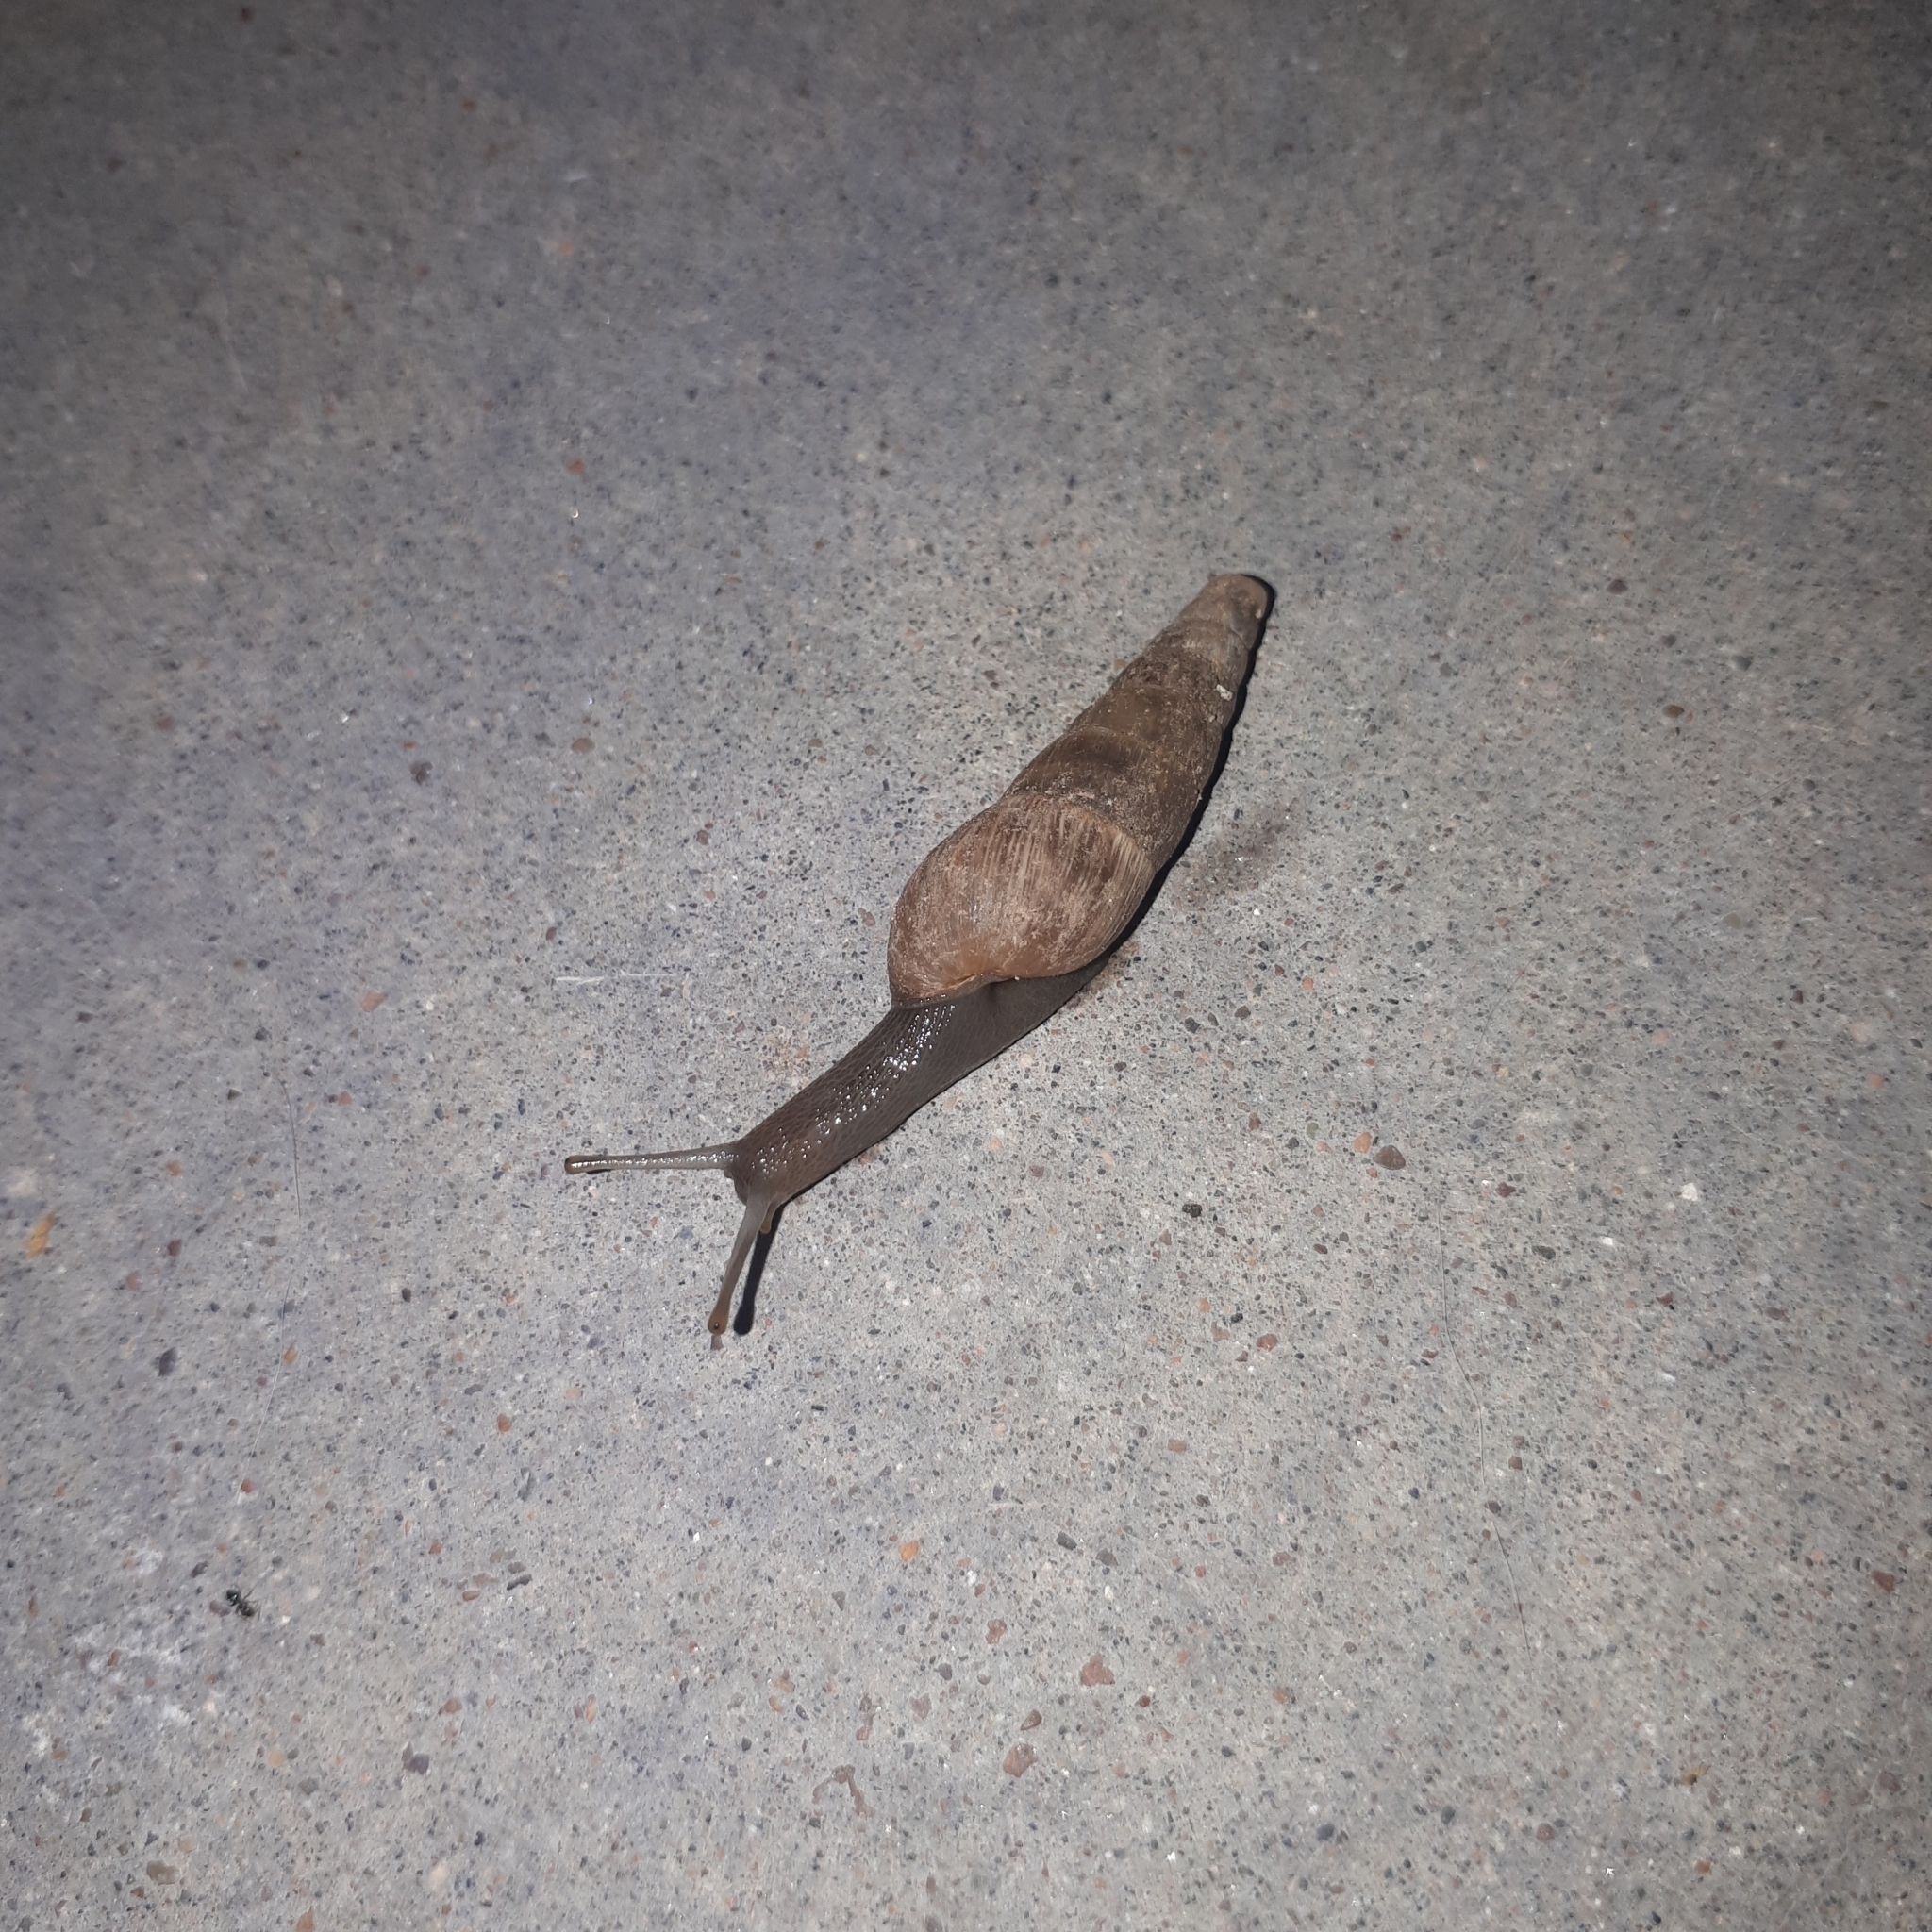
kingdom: Animalia
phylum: Mollusca
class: Gastropoda
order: Stylommatophora
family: Achatinidae
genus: Rumina
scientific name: Rumina decollata
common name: Decollate snail
